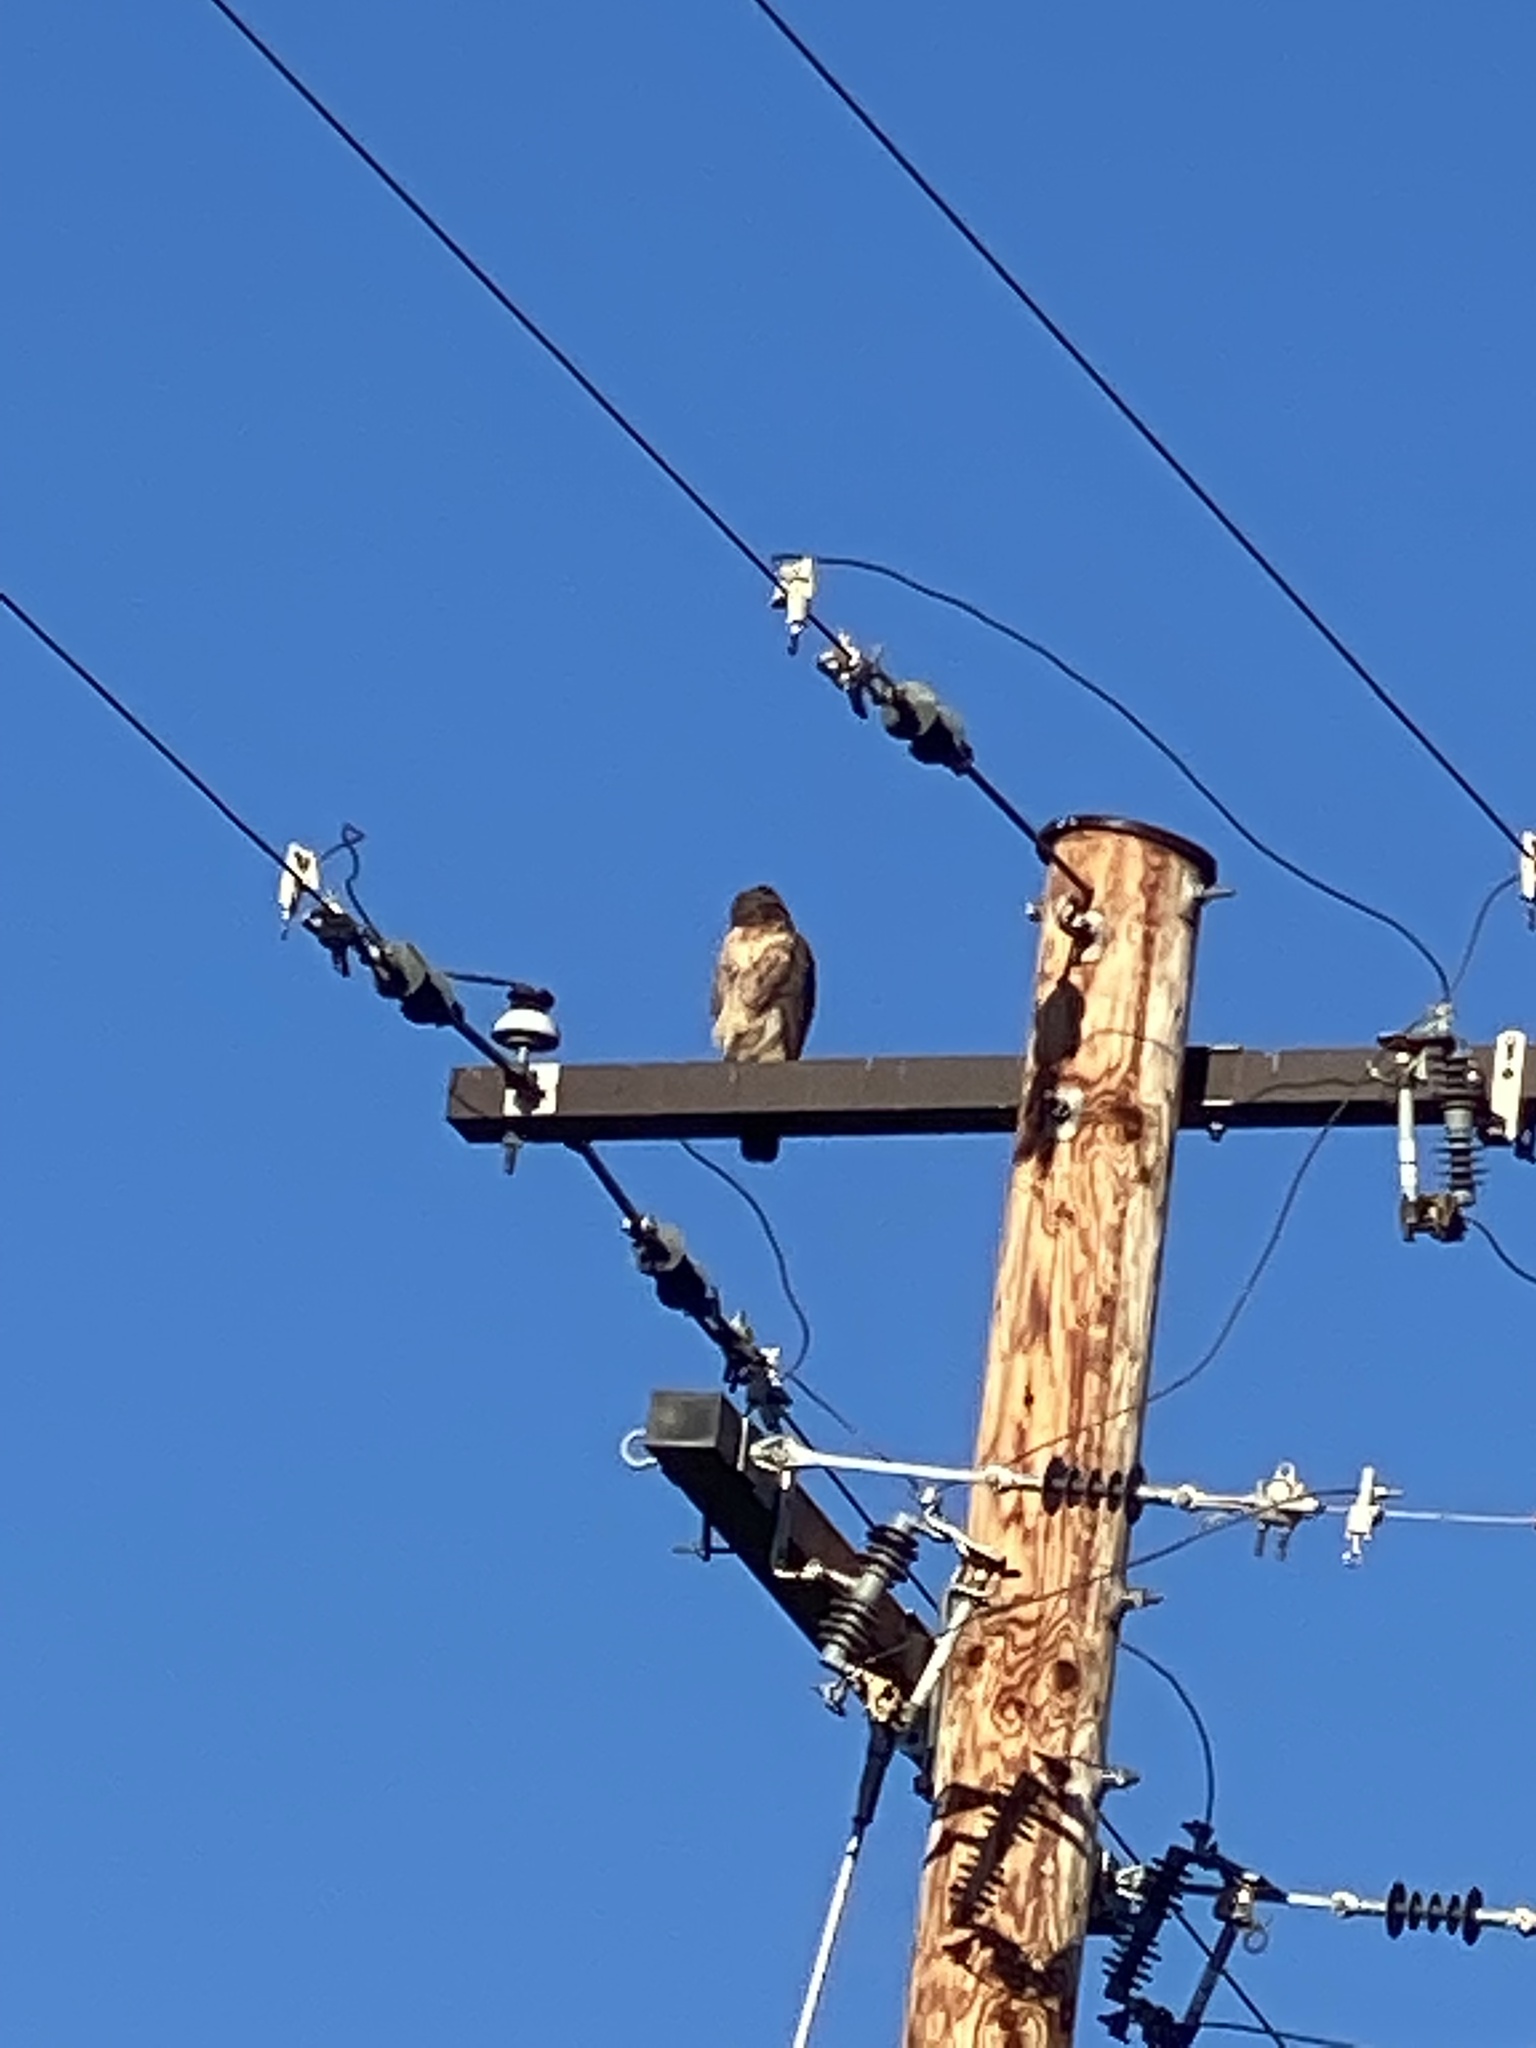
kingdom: Animalia
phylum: Chordata
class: Aves
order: Accipitriformes
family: Accipitridae
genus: Buteo
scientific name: Buteo jamaicensis
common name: Red-tailed hawk
